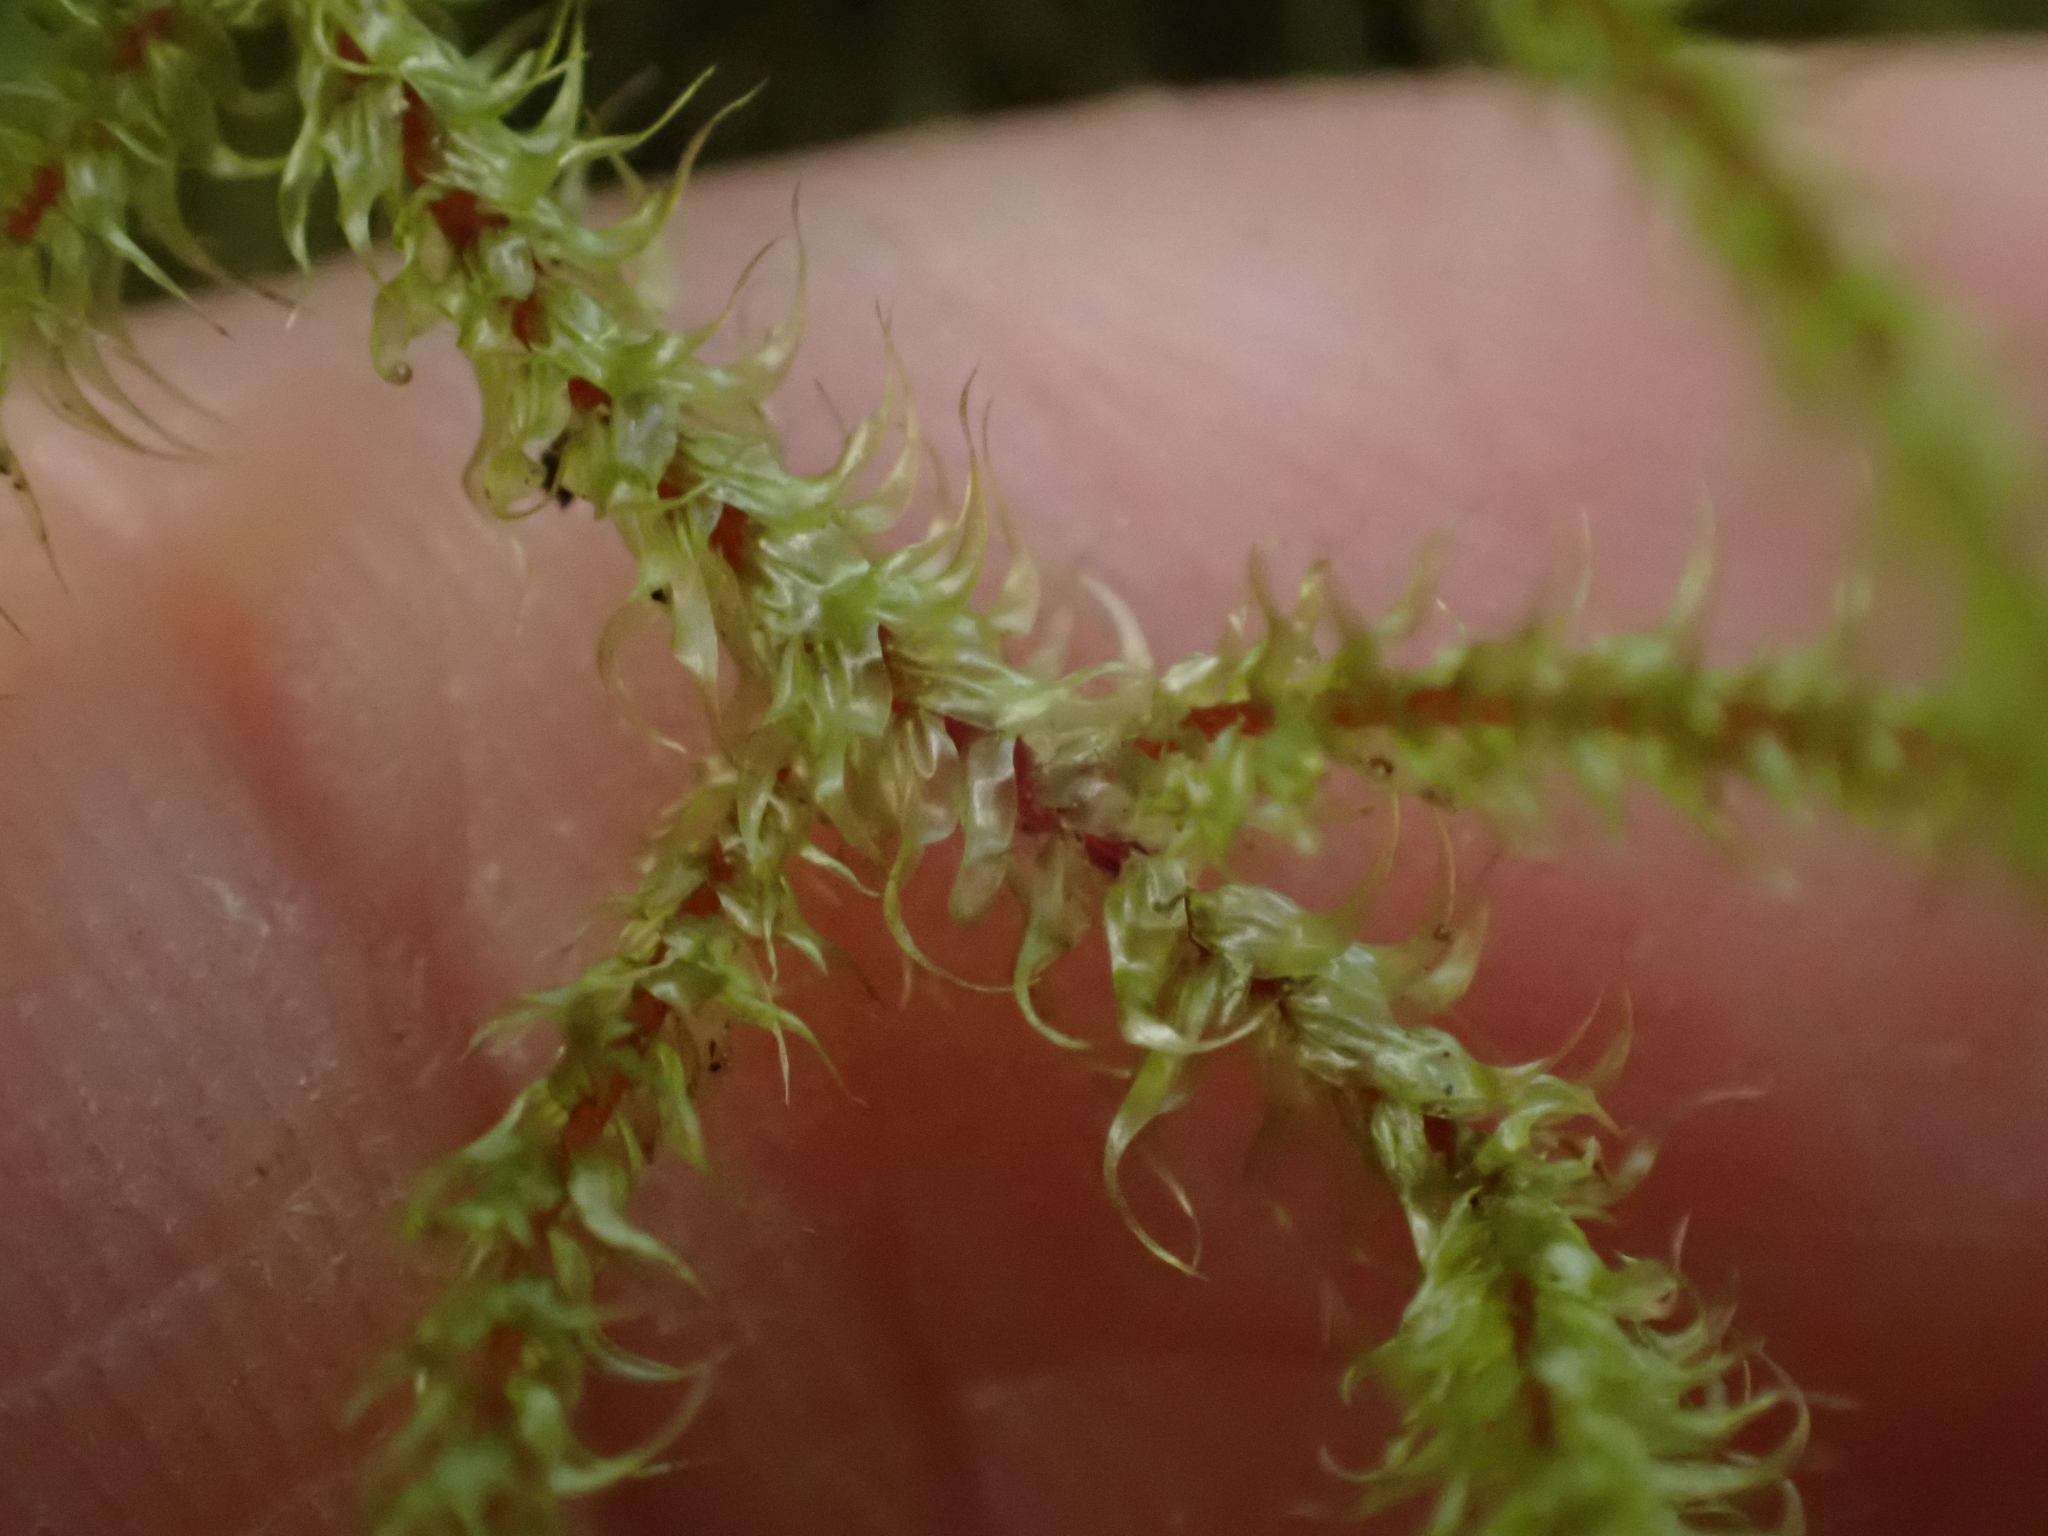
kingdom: Plantae
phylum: Bryophyta
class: Bryopsida
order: Hypnales
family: Hylocomiaceae
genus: Rhytidiadelphus
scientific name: Rhytidiadelphus loreus
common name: Lanky moss
